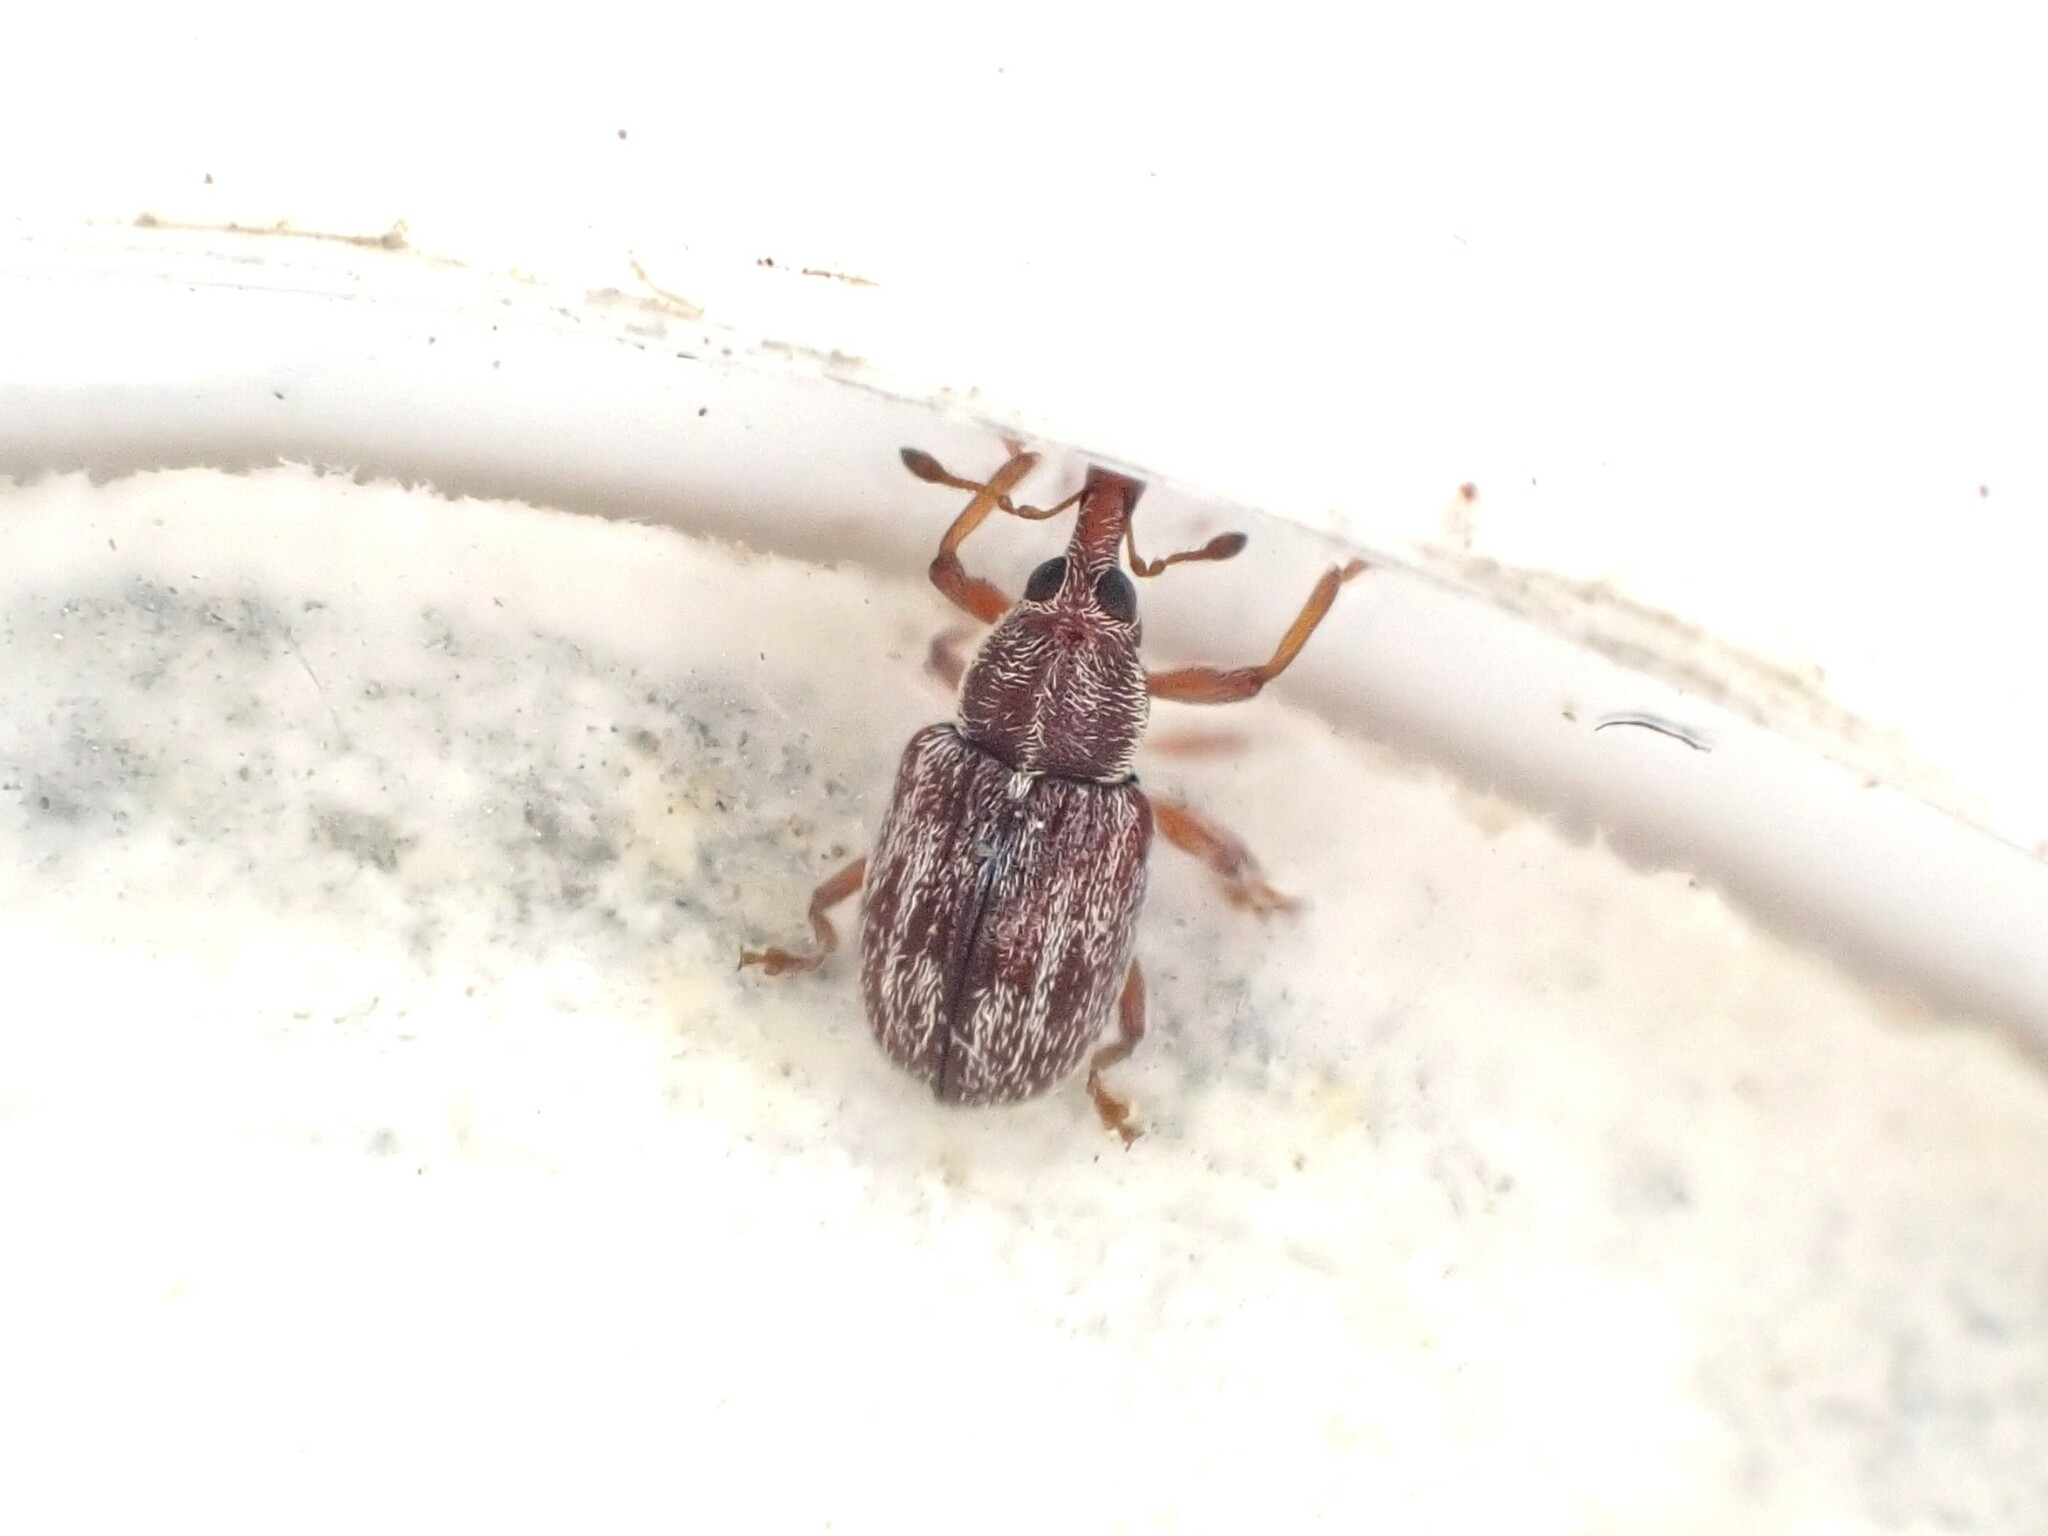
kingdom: Animalia
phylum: Arthropoda
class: Insecta
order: Coleoptera
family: Curculionidae
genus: Neomycta
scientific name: Neomycta rubida
